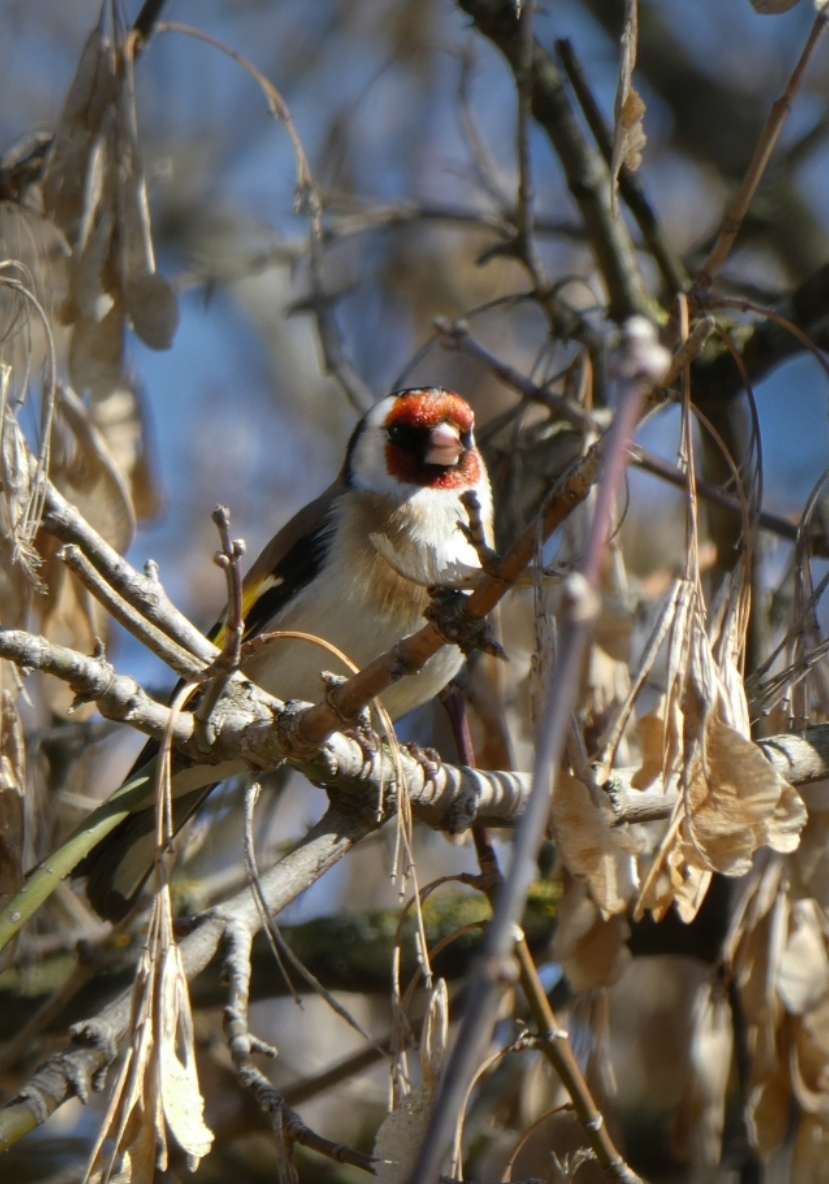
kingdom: Animalia
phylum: Chordata
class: Aves
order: Passeriformes
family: Fringillidae
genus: Carduelis
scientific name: Carduelis carduelis
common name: European goldfinch
